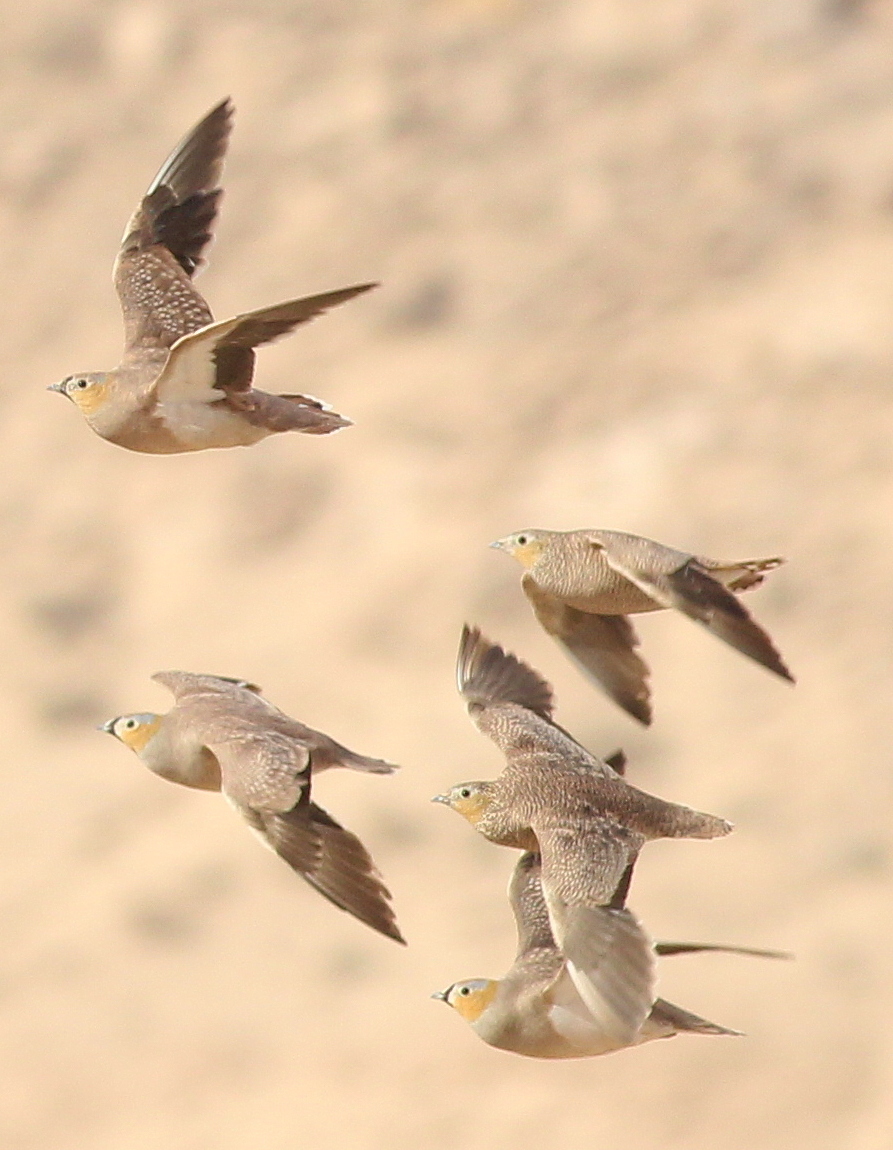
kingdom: Animalia
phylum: Chordata
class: Aves
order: Pteroclidiformes
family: Pteroclididae
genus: Pterocles
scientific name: Pterocles coronatus
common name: Crowned sandgrouse
